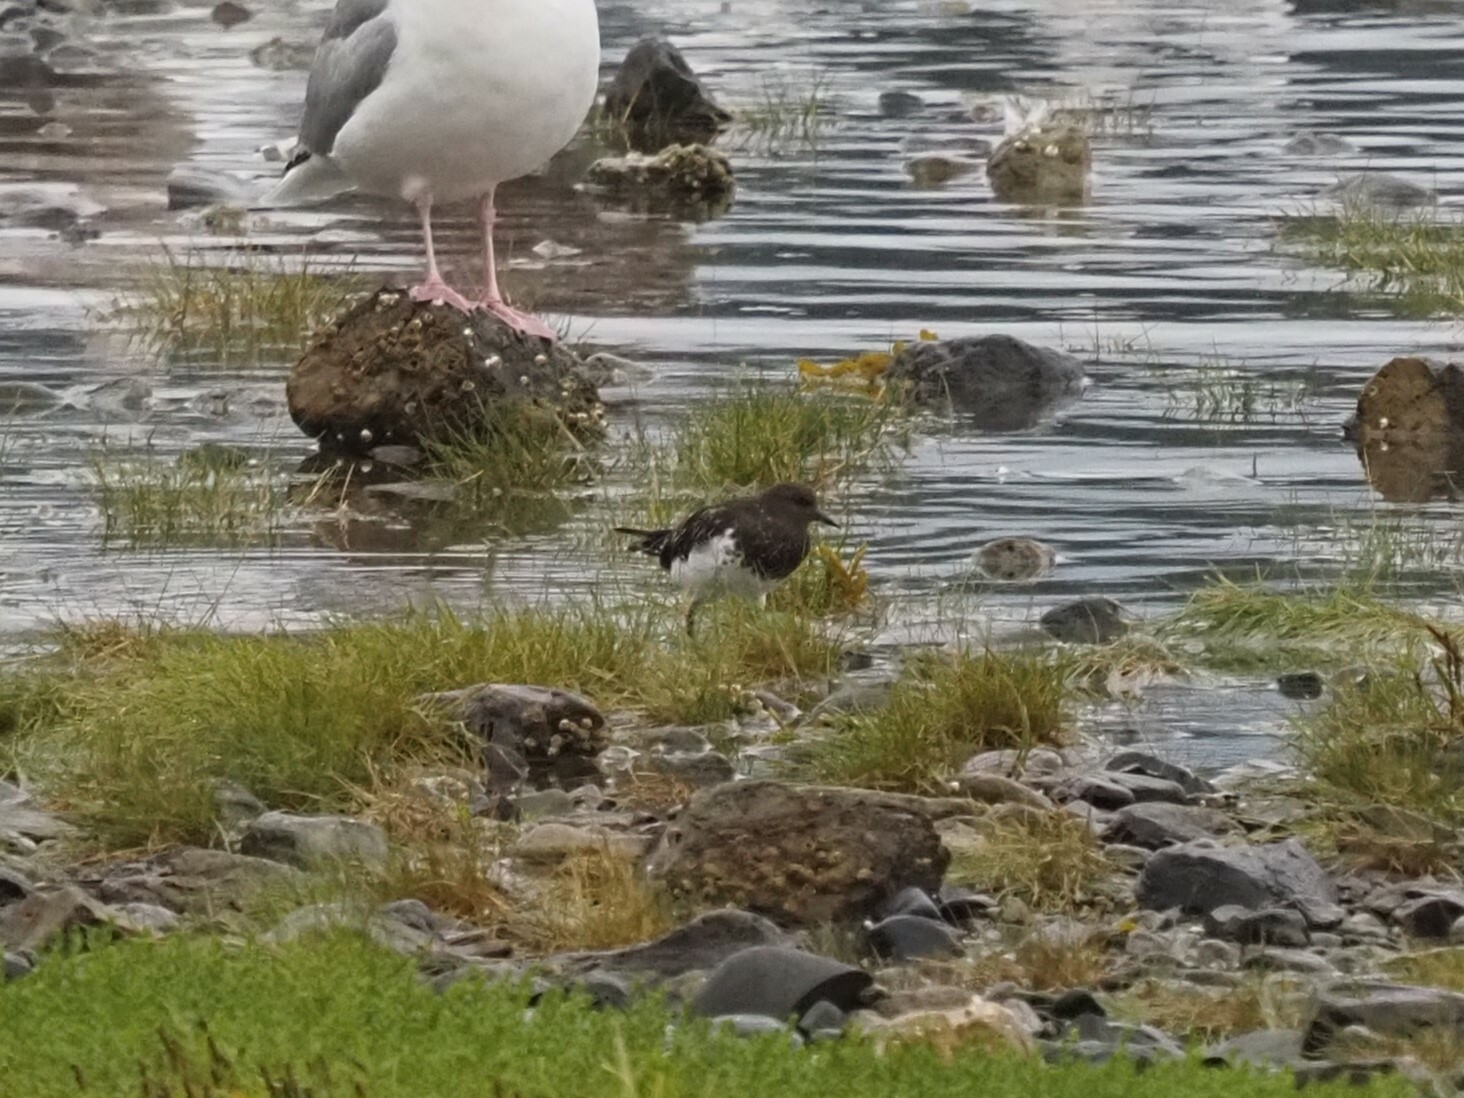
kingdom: Animalia
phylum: Chordata
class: Aves
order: Charadriiformes
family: Scolopacidae
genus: Arenaria
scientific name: Arenaria melanocephala
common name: Black turnstone
